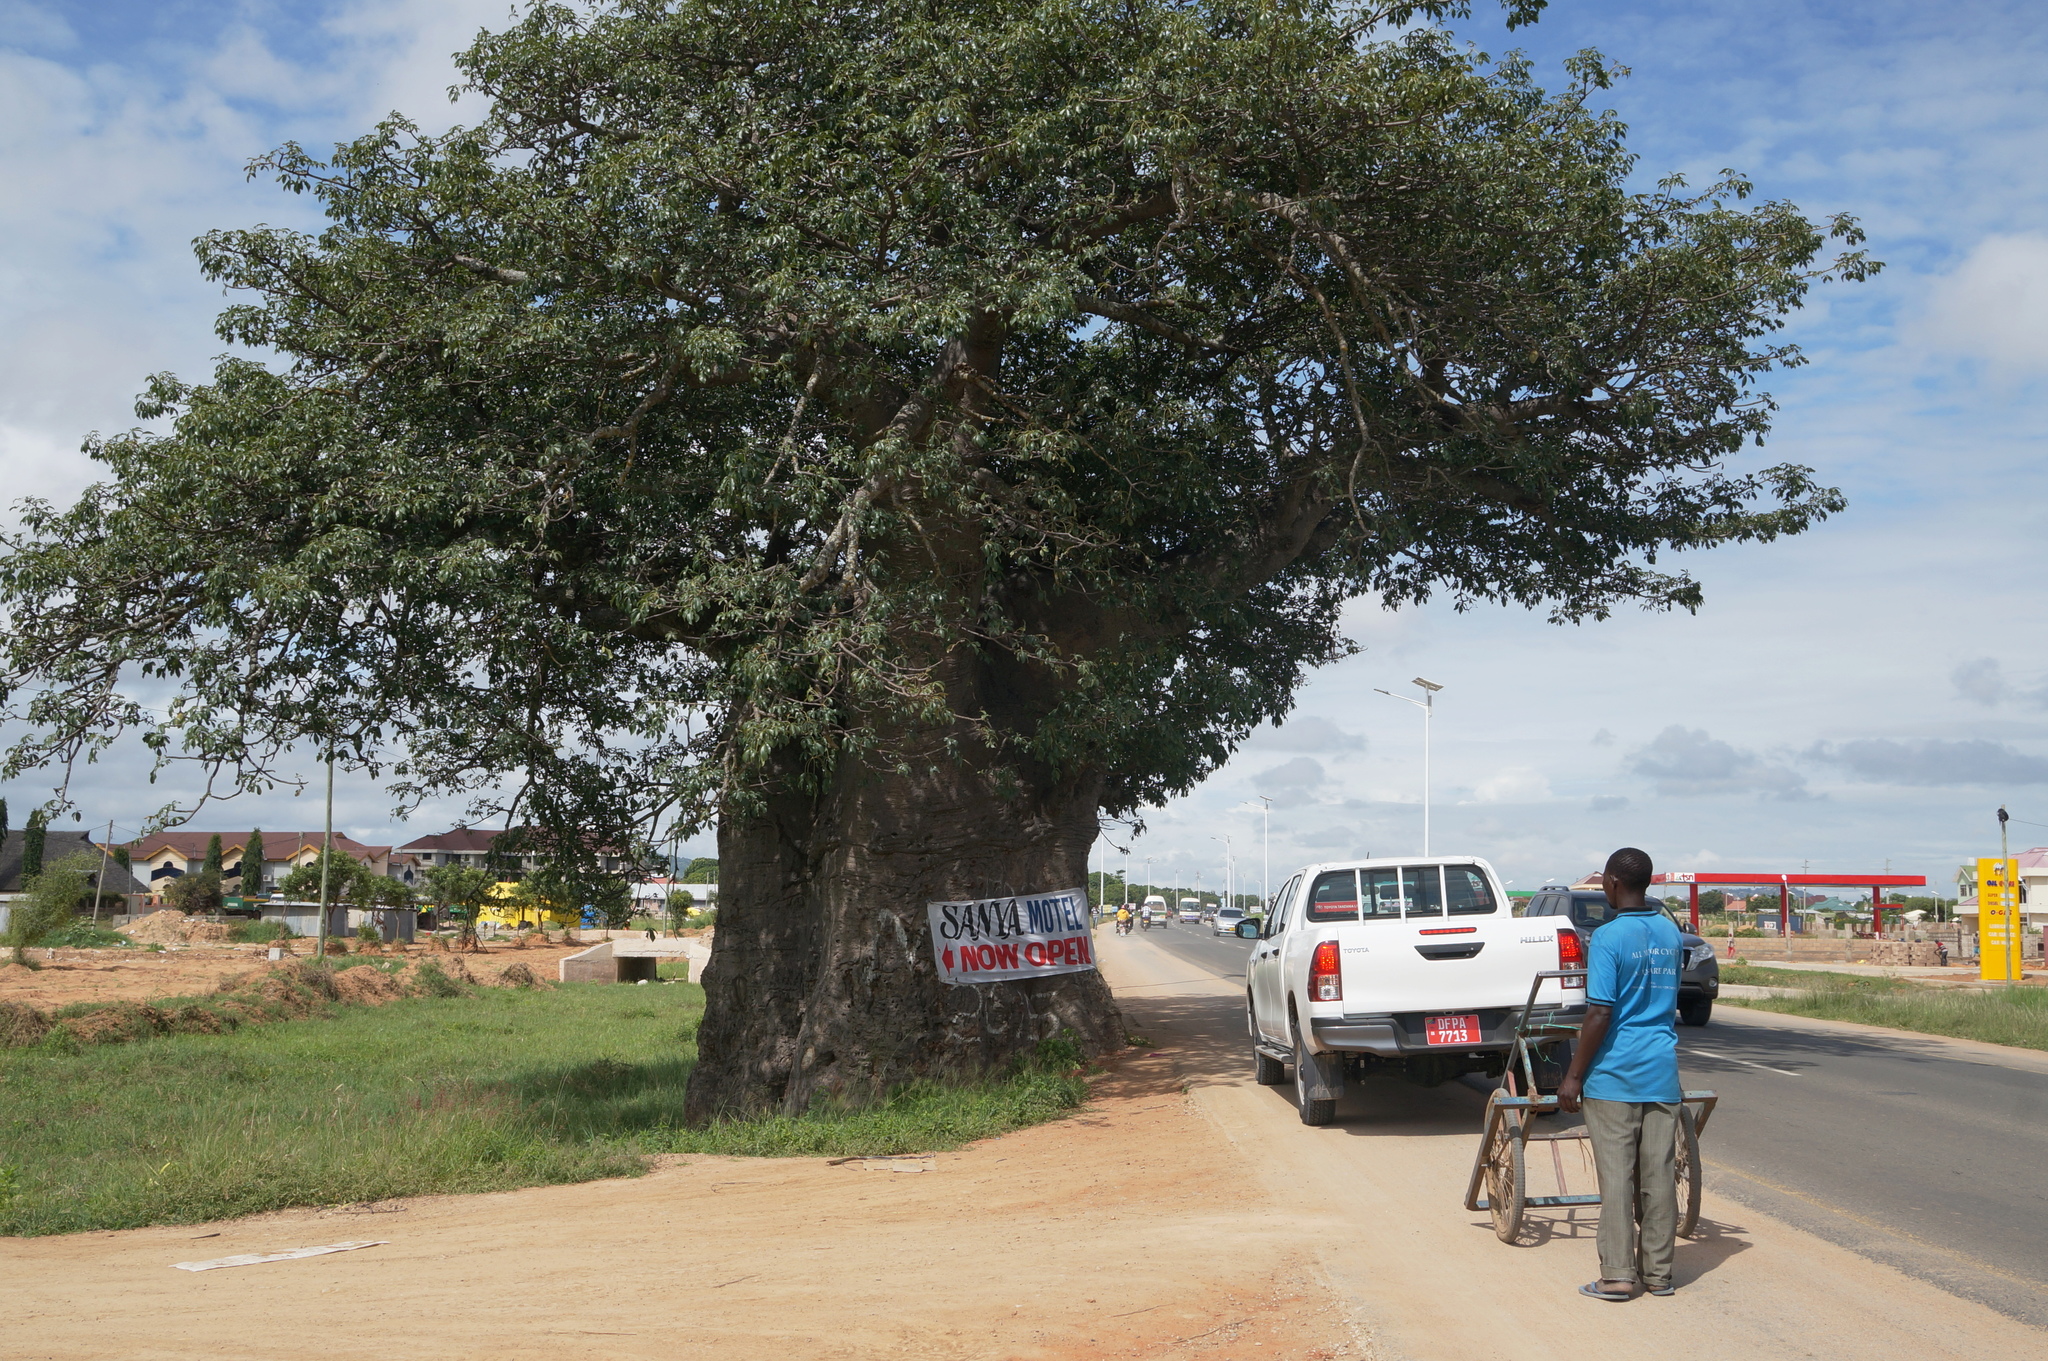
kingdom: Plantae
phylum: Tracheophyta
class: Magnoliopsida
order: Malvales
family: Malvaceae
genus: Adansonia
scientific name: Adansonia digitata
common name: Dead-rat-tree
